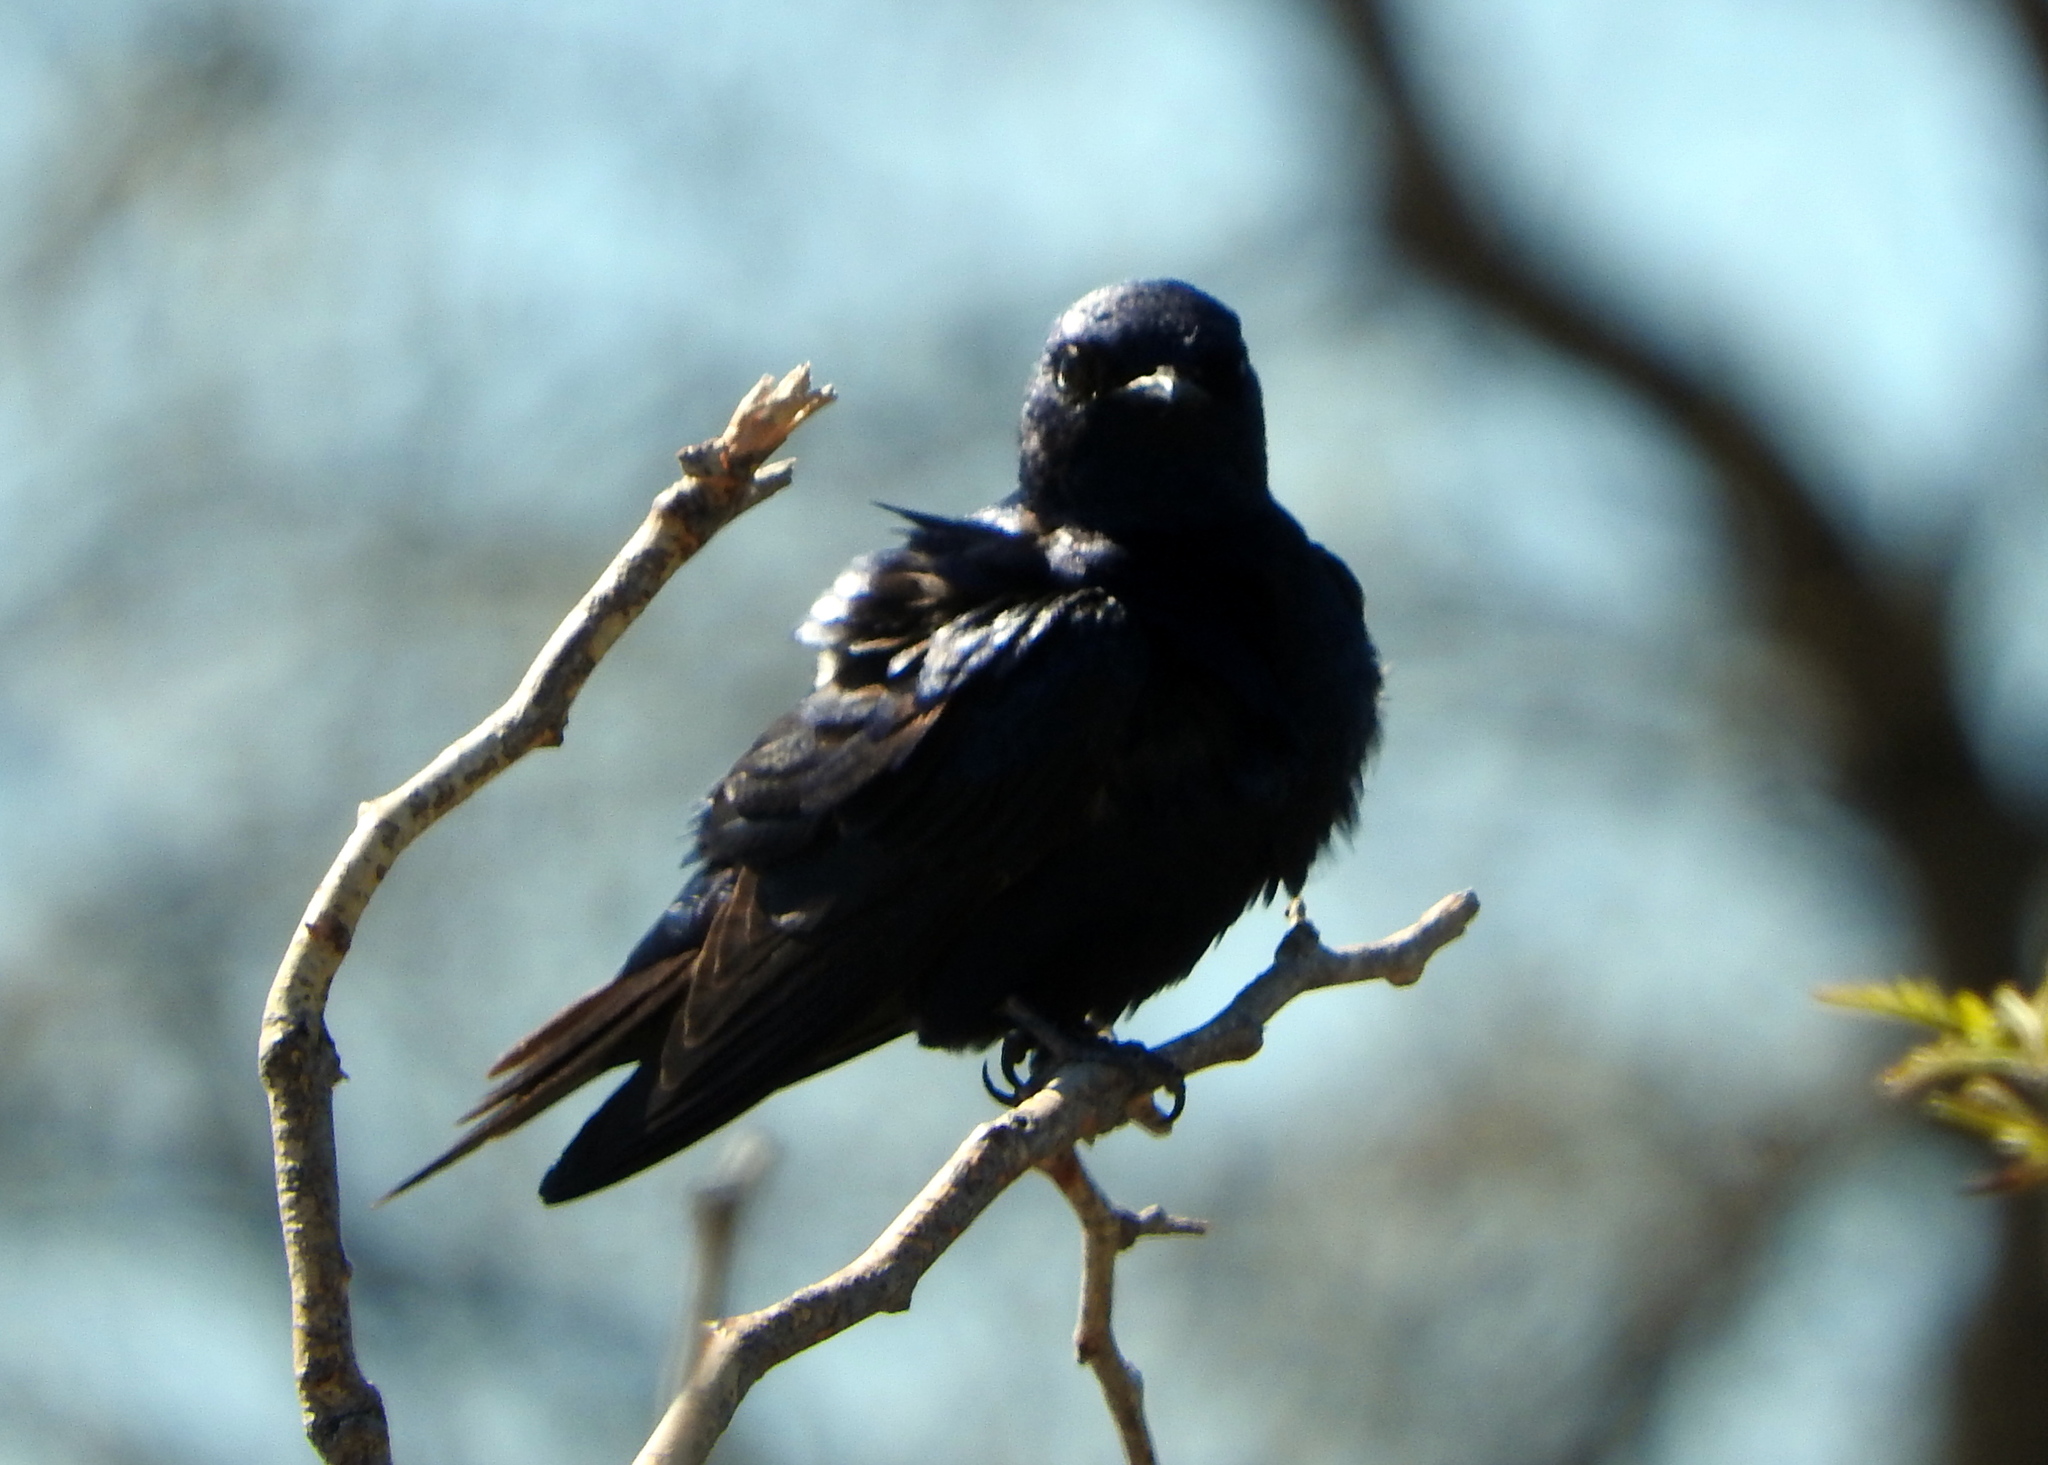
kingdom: Animalia
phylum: Chordata
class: Aves
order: Passeriformes
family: Hirundinidae
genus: Progne
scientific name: Progne elegans
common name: Southern martin
